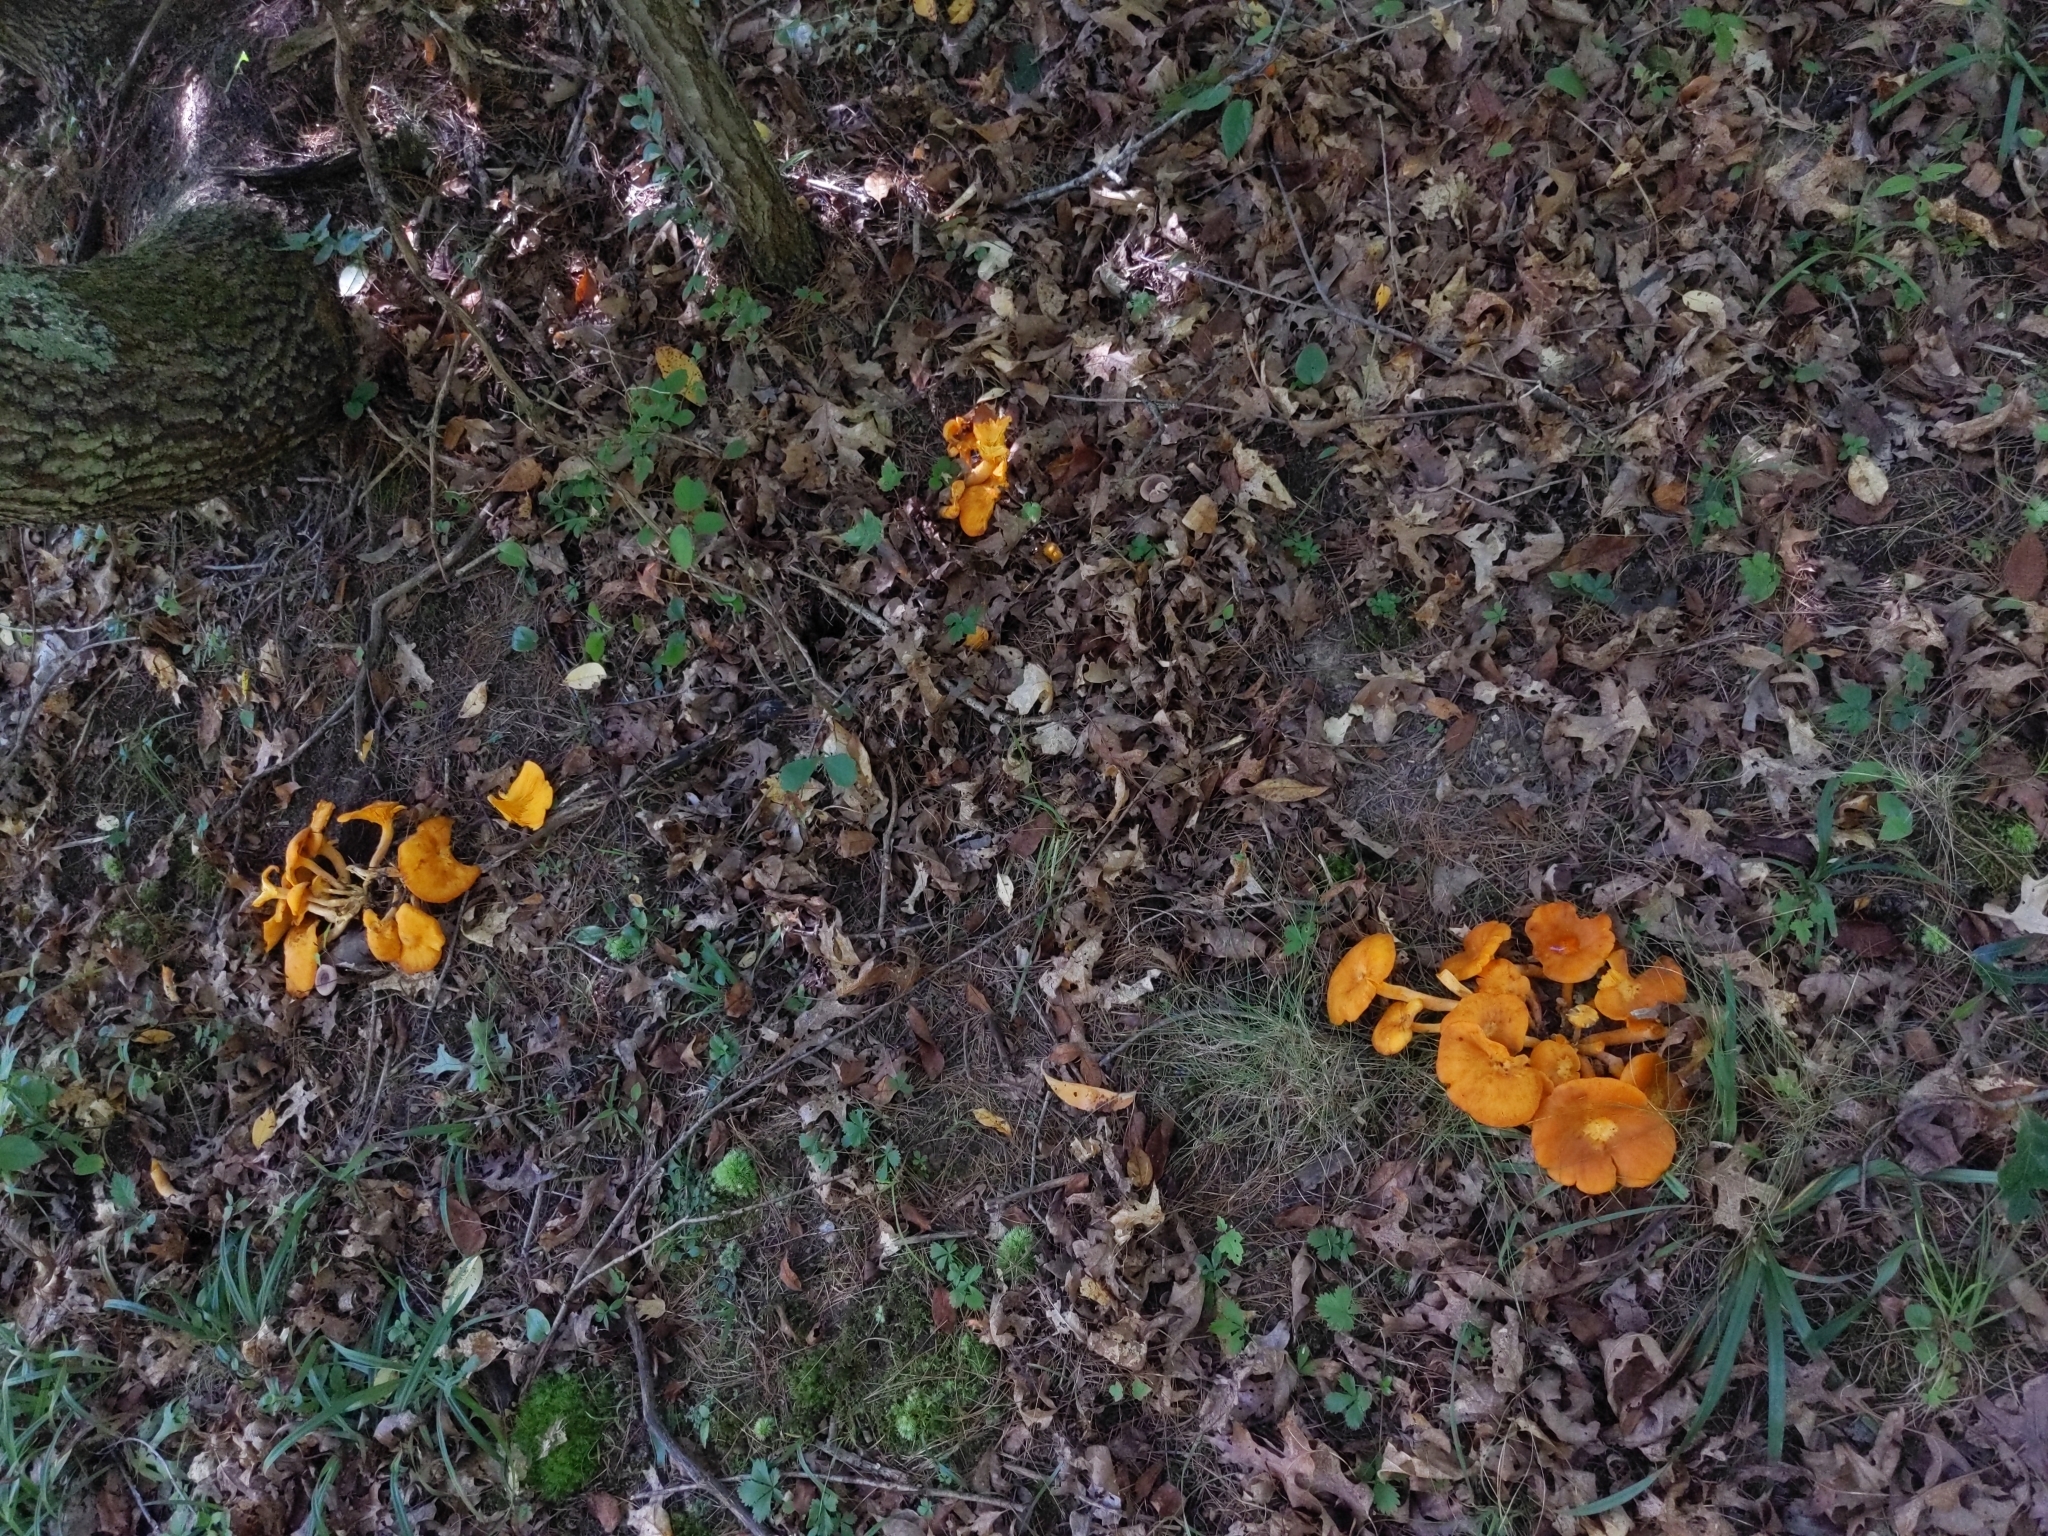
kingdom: Fungi
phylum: Basidiomycota
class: Agaricomycetes
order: Agaricales
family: Omphalotaceae
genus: Omphalotus
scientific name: Omphalotus illudens
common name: Jack o lantern
